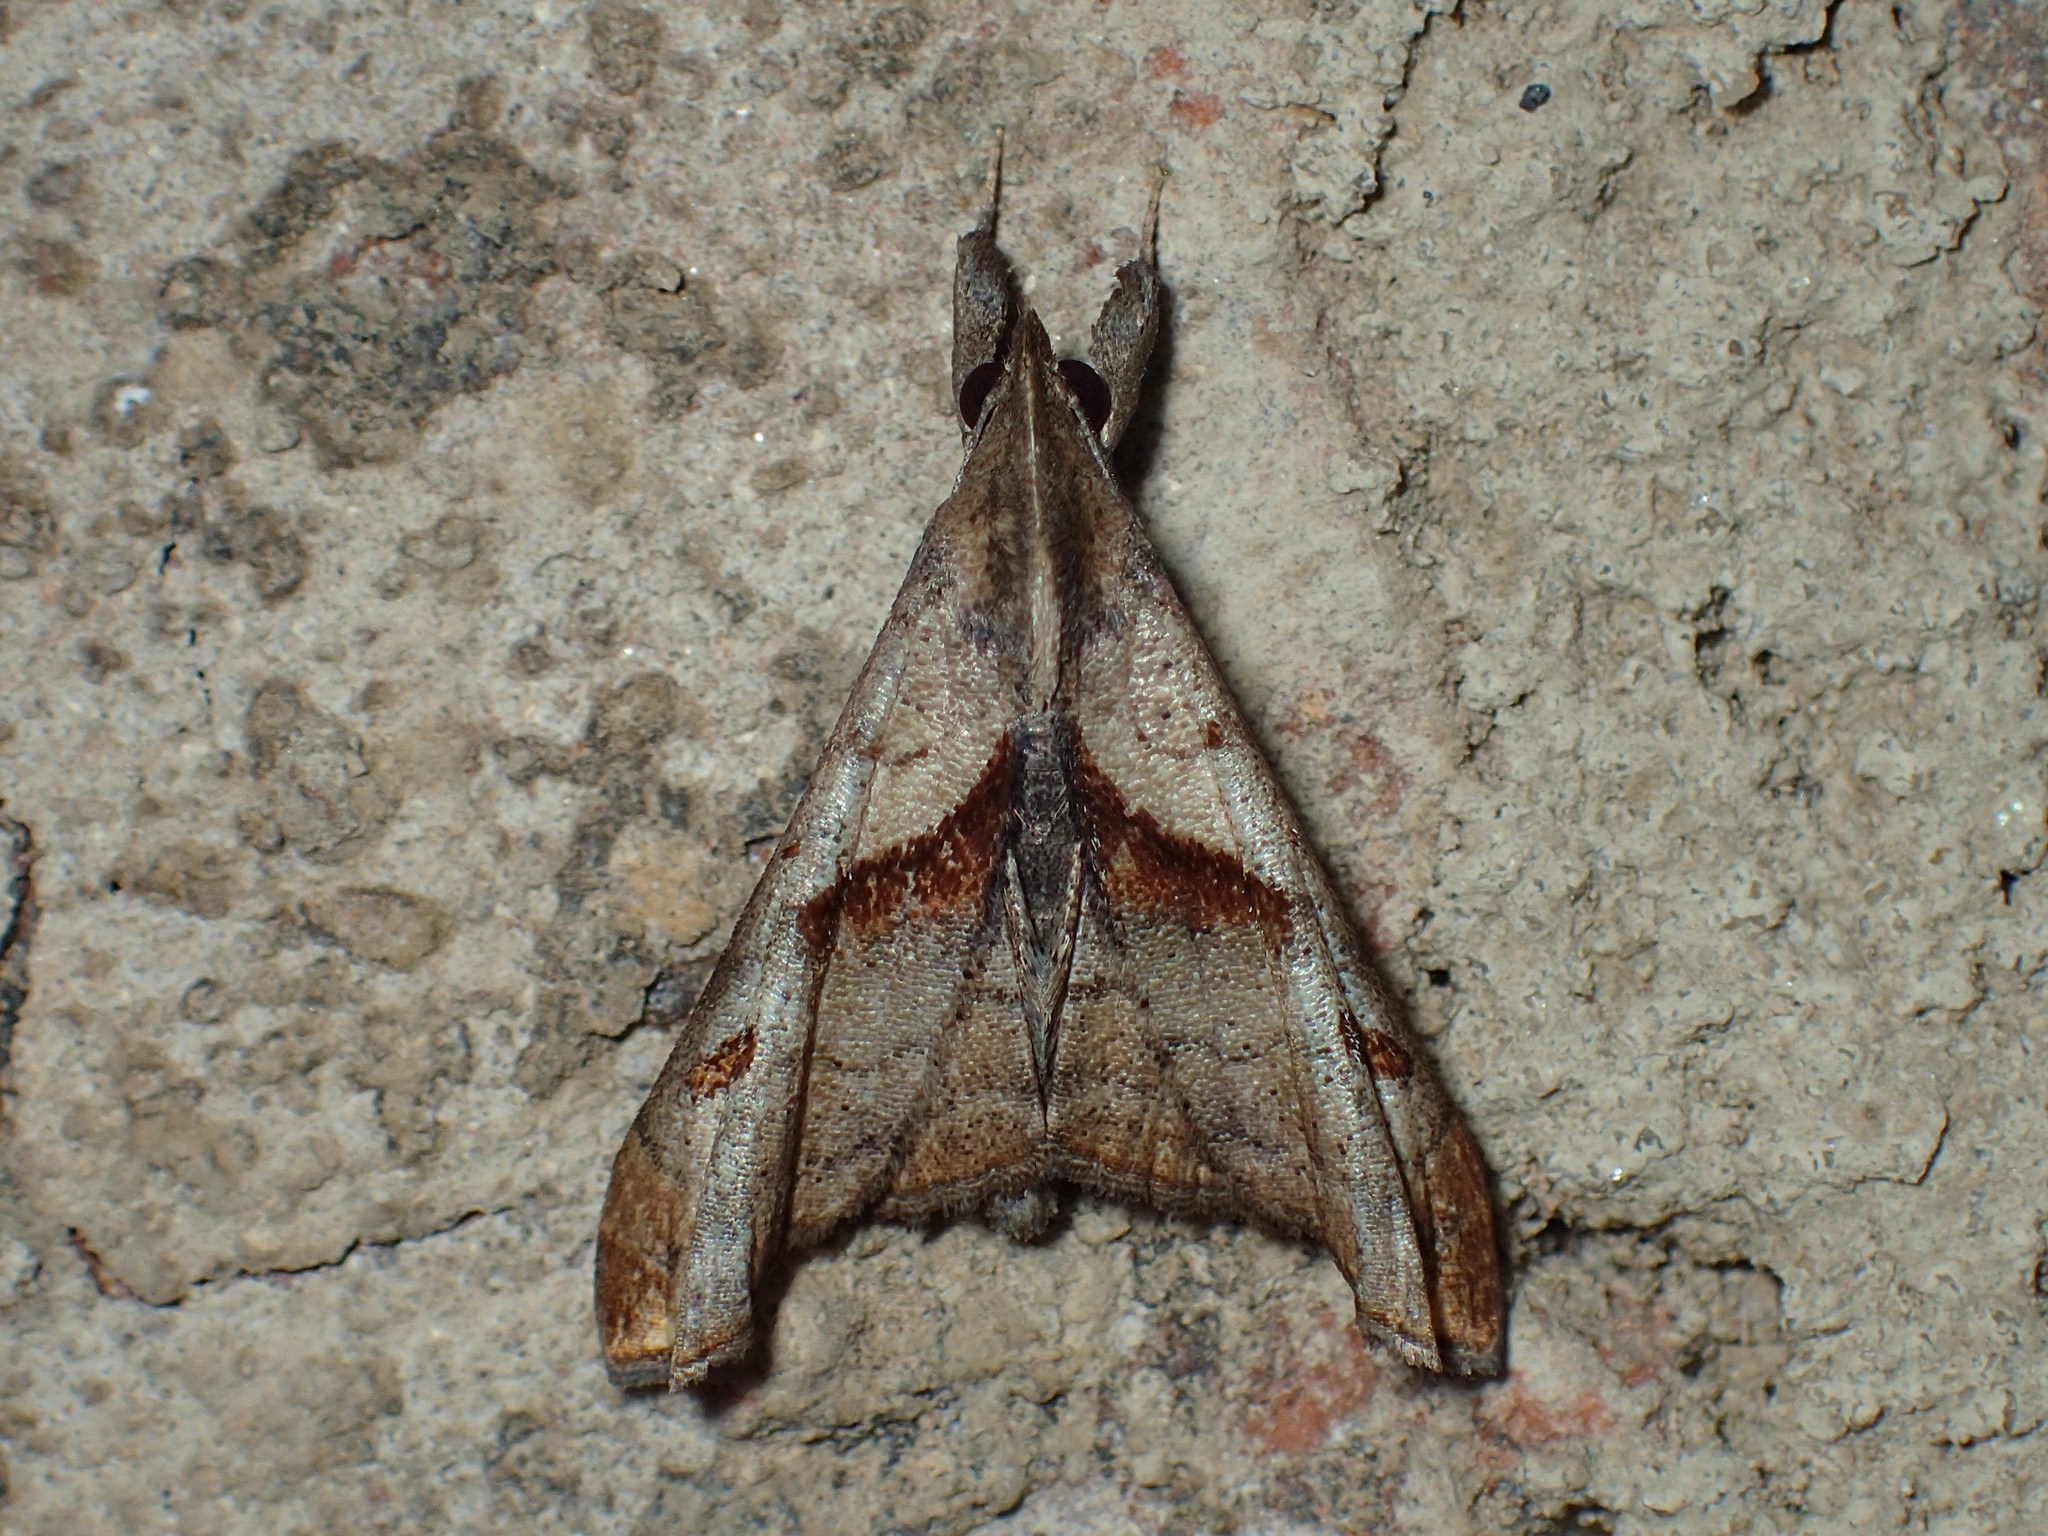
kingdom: Animalia
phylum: Arthropoda
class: Insecta
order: Lepidoptera
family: Erebidae
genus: Palthis
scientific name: Palthis angulalis
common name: Dark-spotted palthis moth
